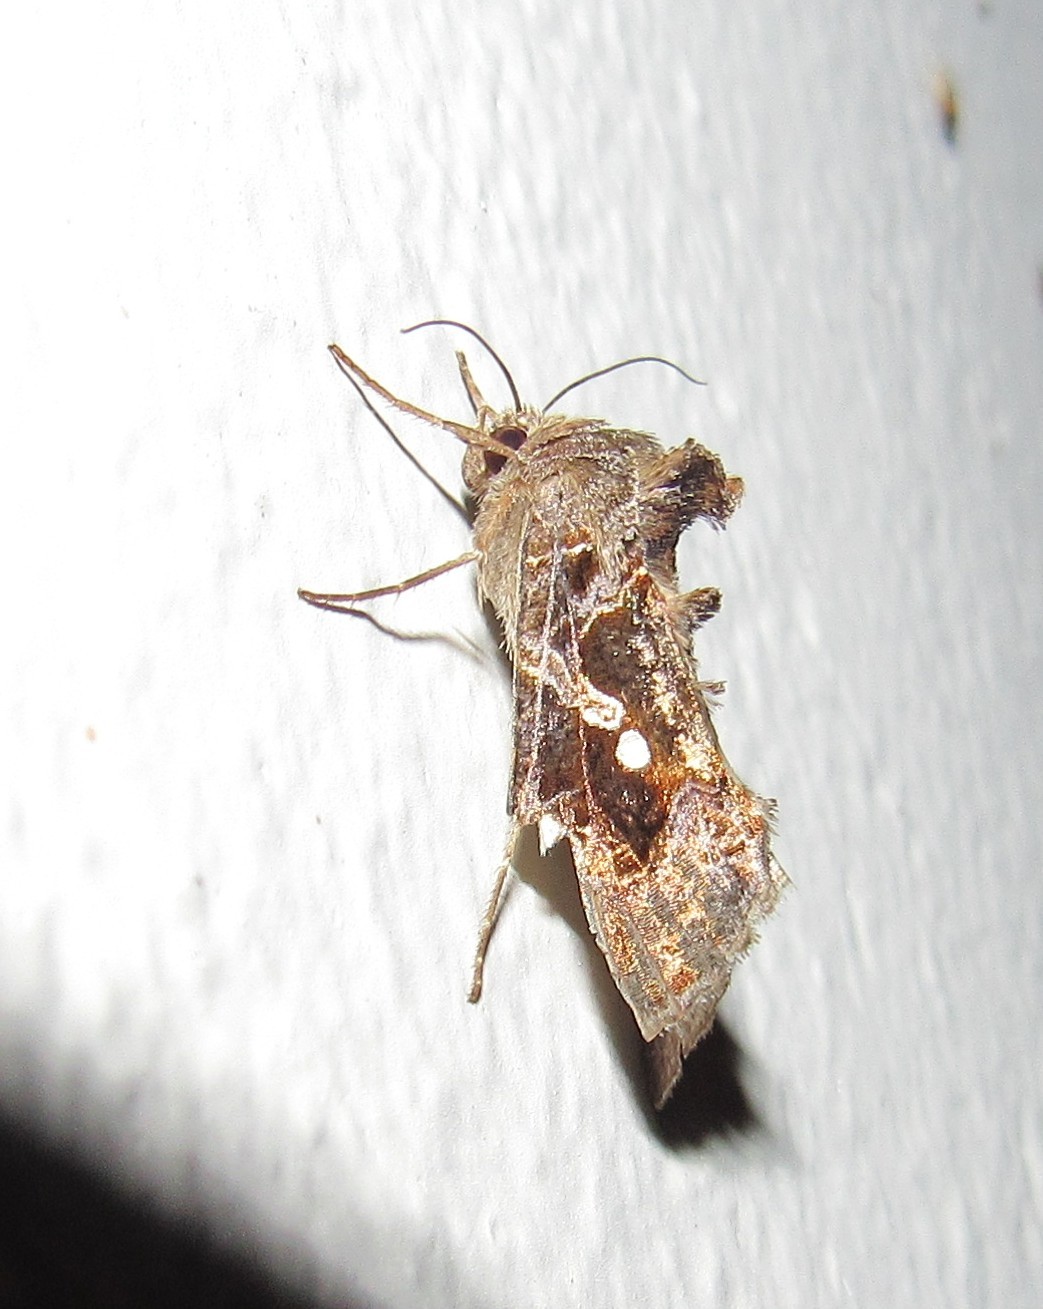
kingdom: Animalia
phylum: Arthropoda
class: Insecta
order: Lepidoptera
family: Noctuidae
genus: Chrysodeixis
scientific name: Chrysodeixis includens
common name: Cutworm moth
